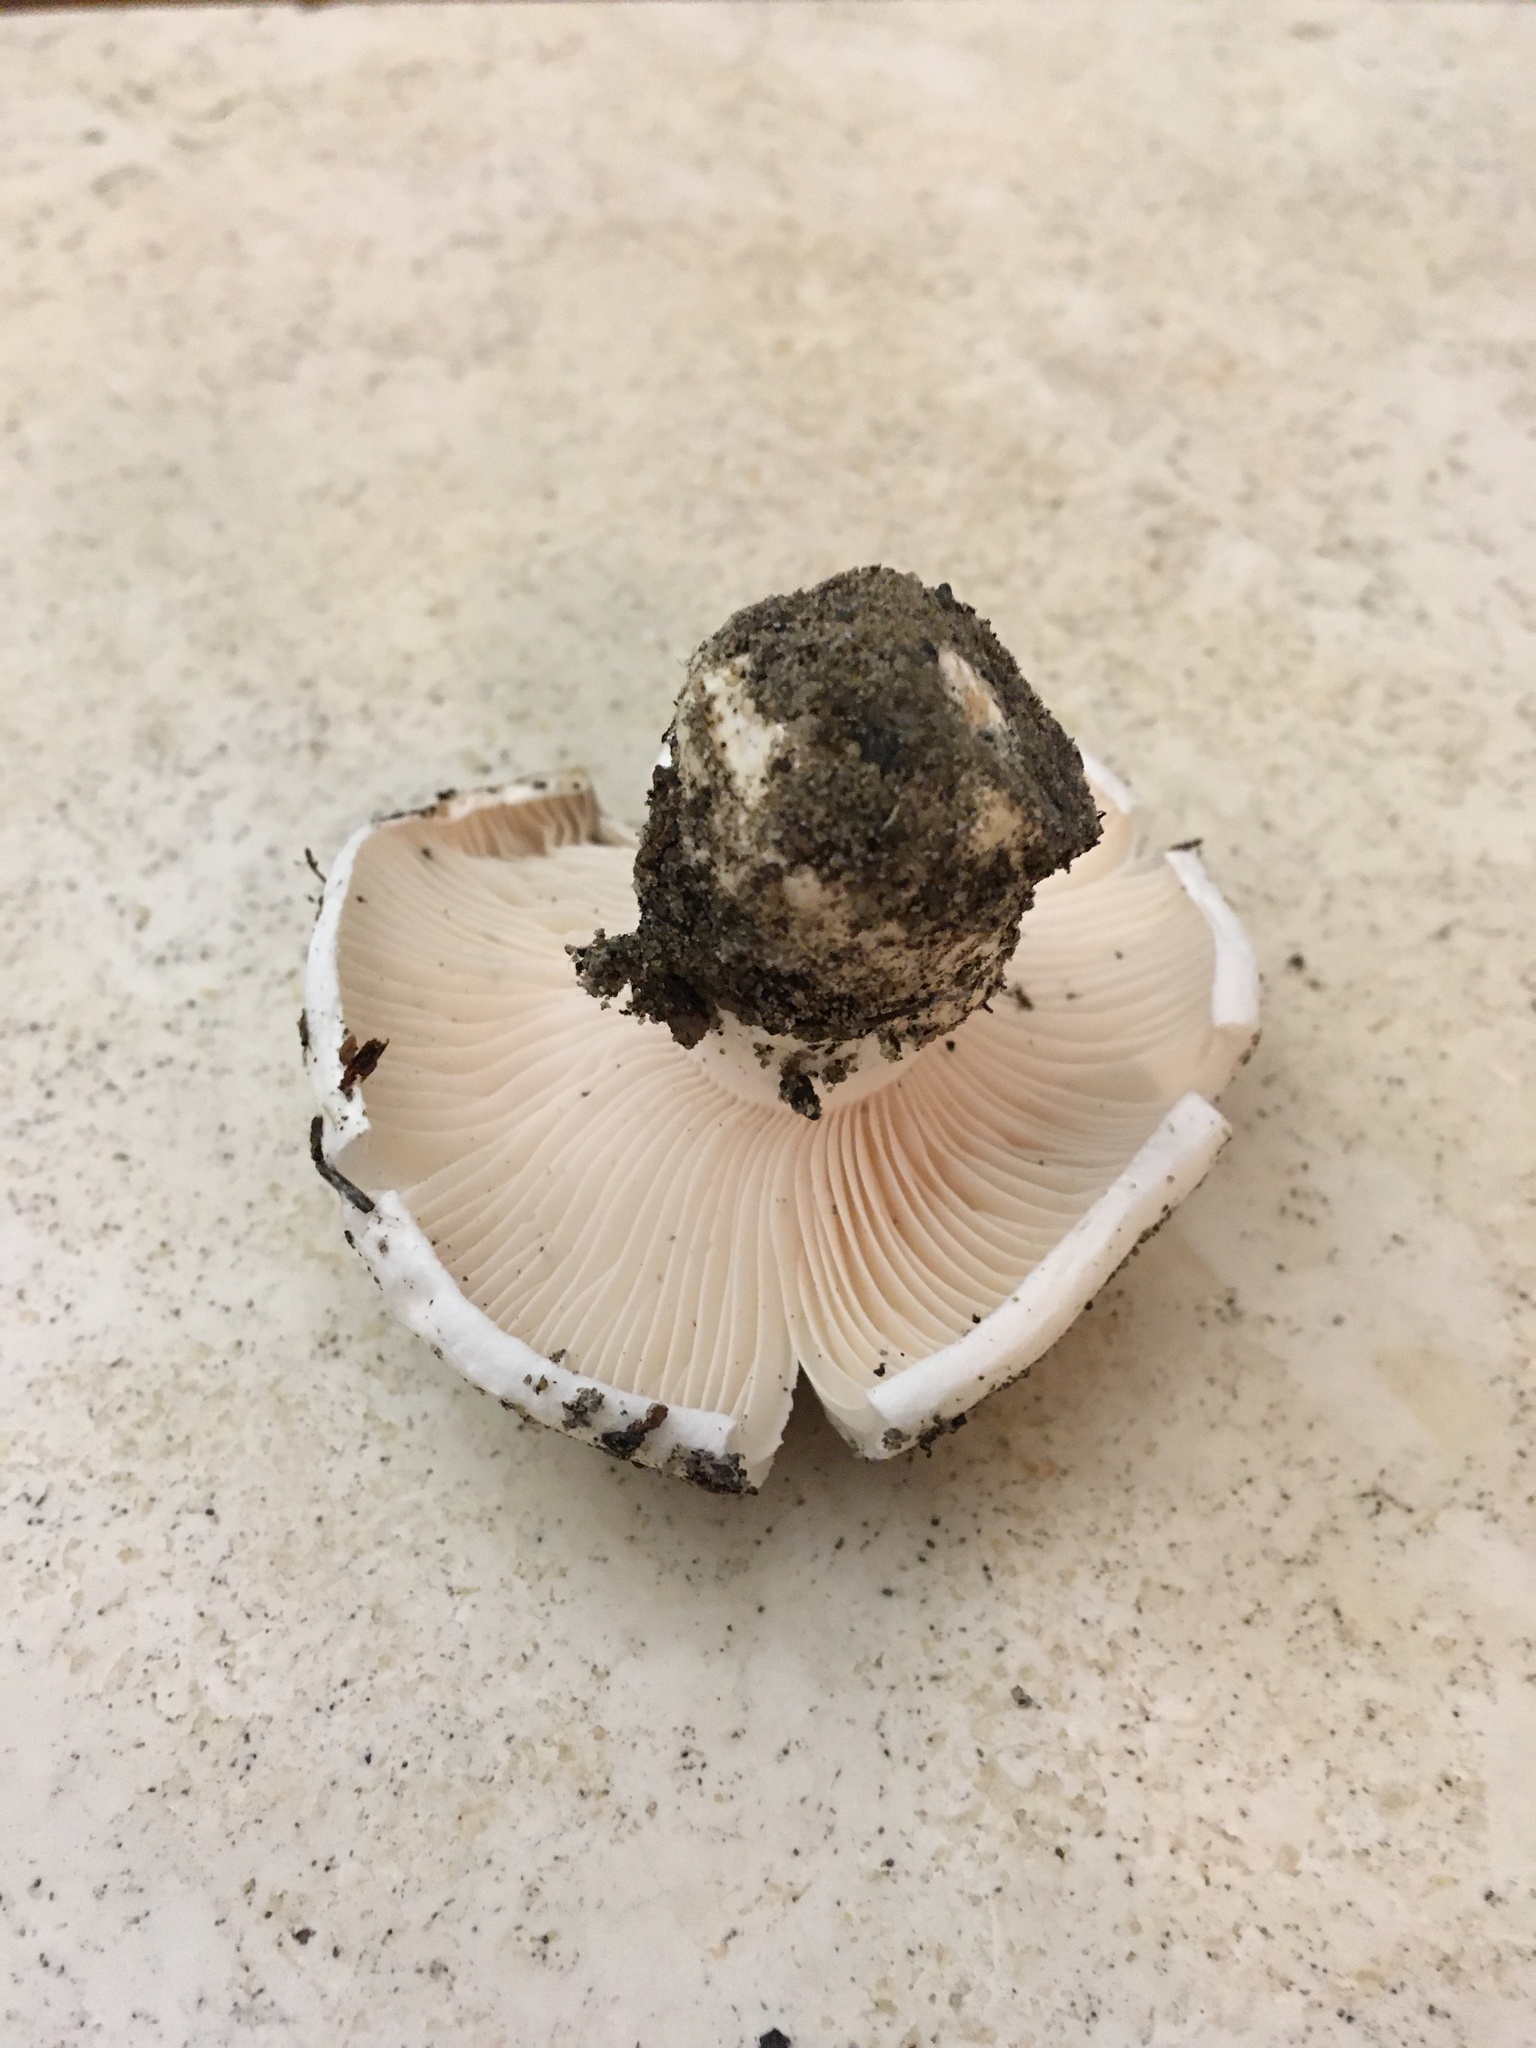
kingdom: Fungi
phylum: Basidiomycota
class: Agaricomycetes
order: Agaricales
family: Hygrophoraceae
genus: Hygrophorus
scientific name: Hygrophorus ponderatus
